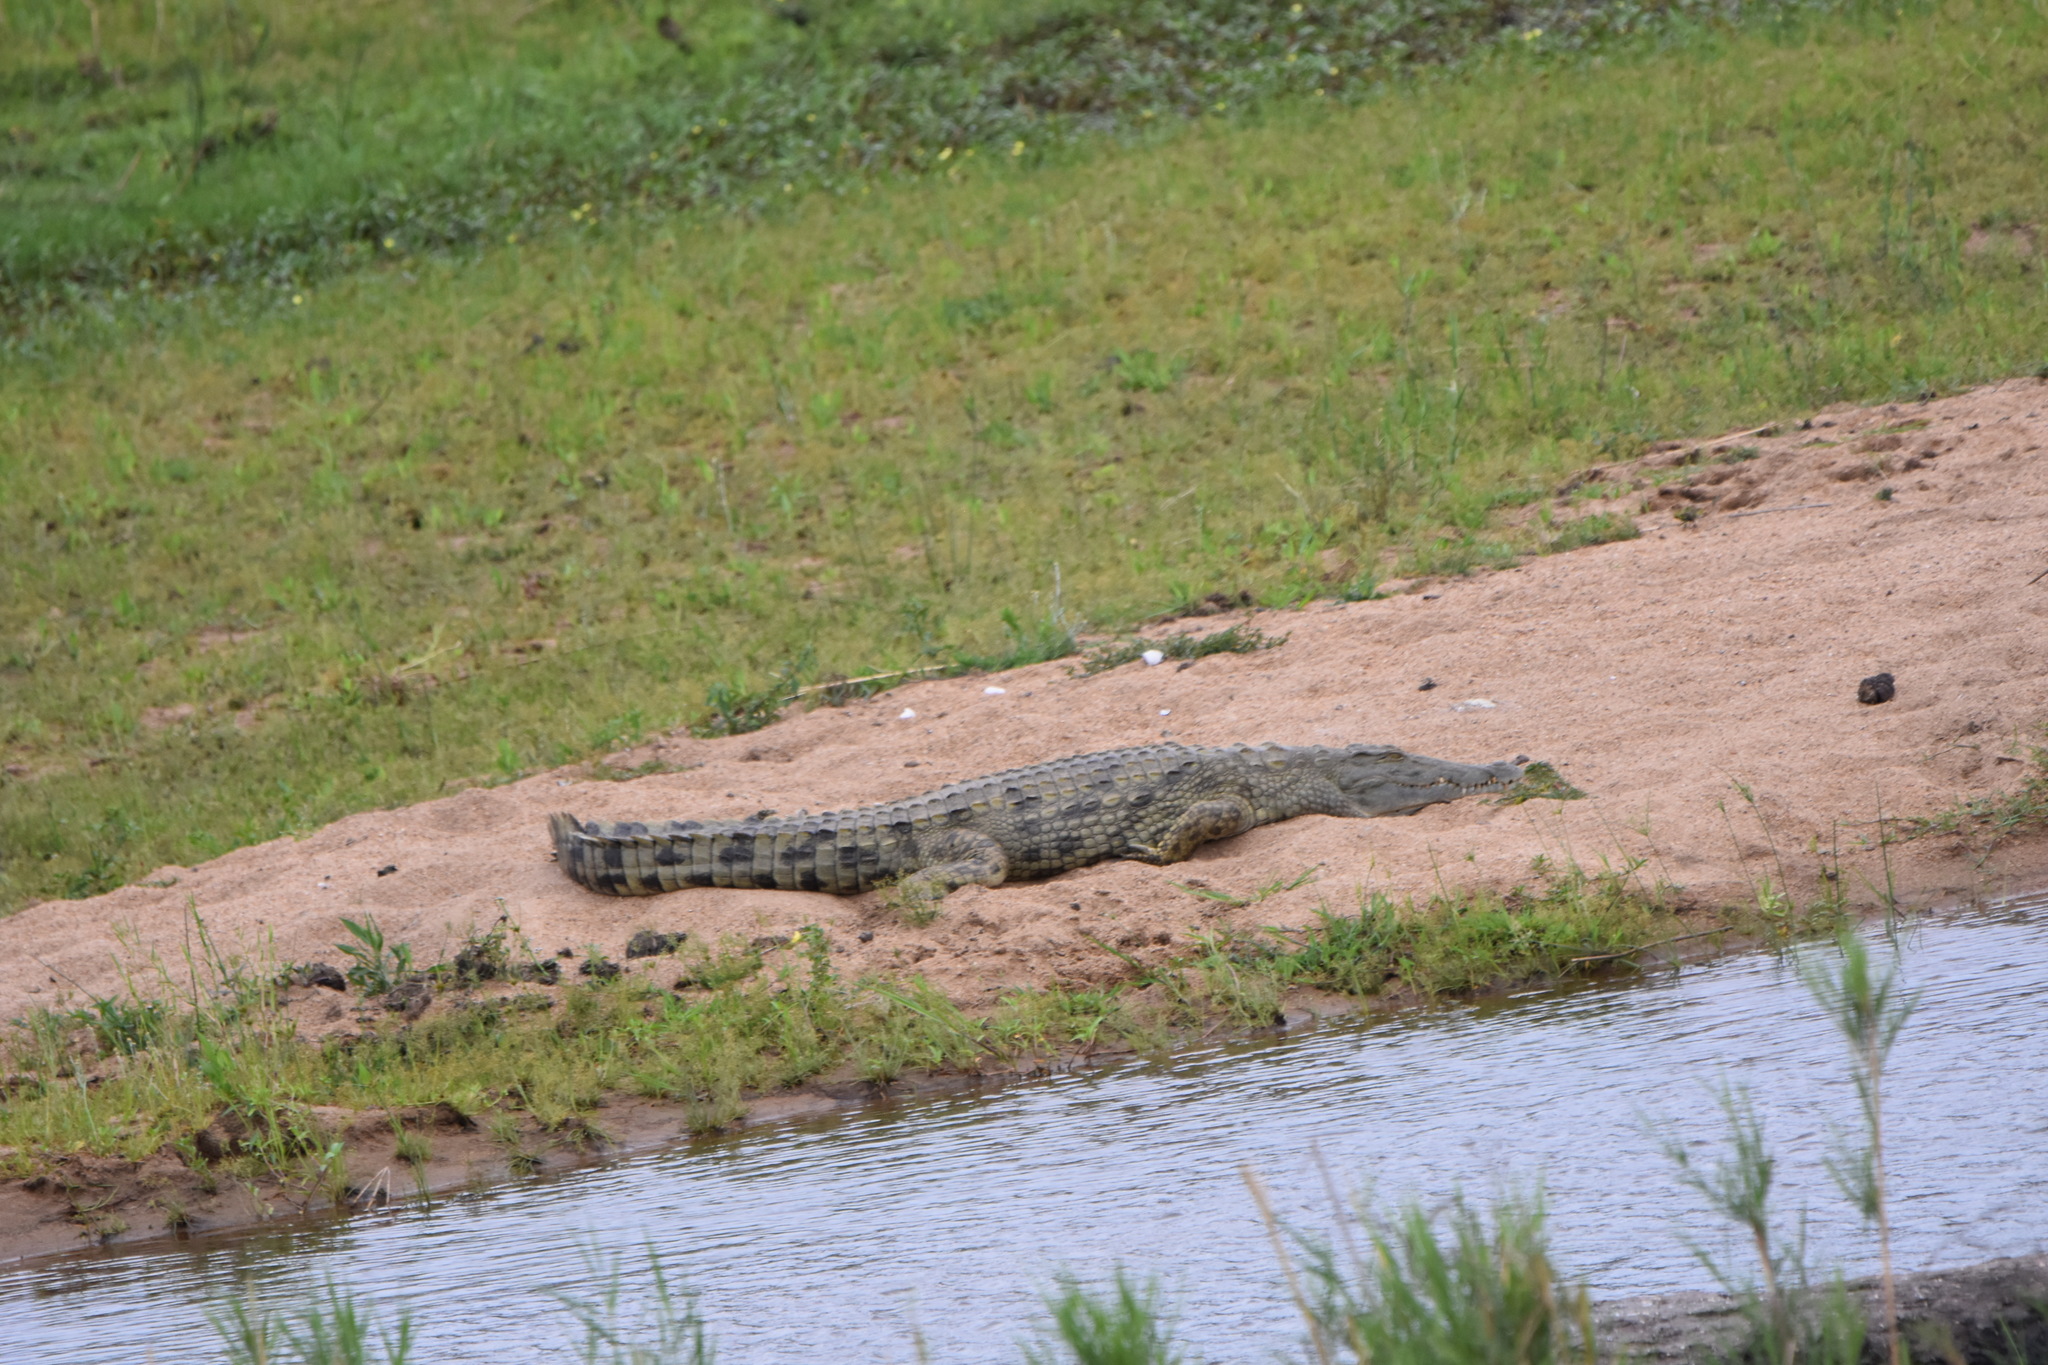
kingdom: Animalia
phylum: Chordata
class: Crocodylia
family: Crocodylidae
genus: Crocodylus
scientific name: Crocodylus niloticus
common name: Nile crocodile
